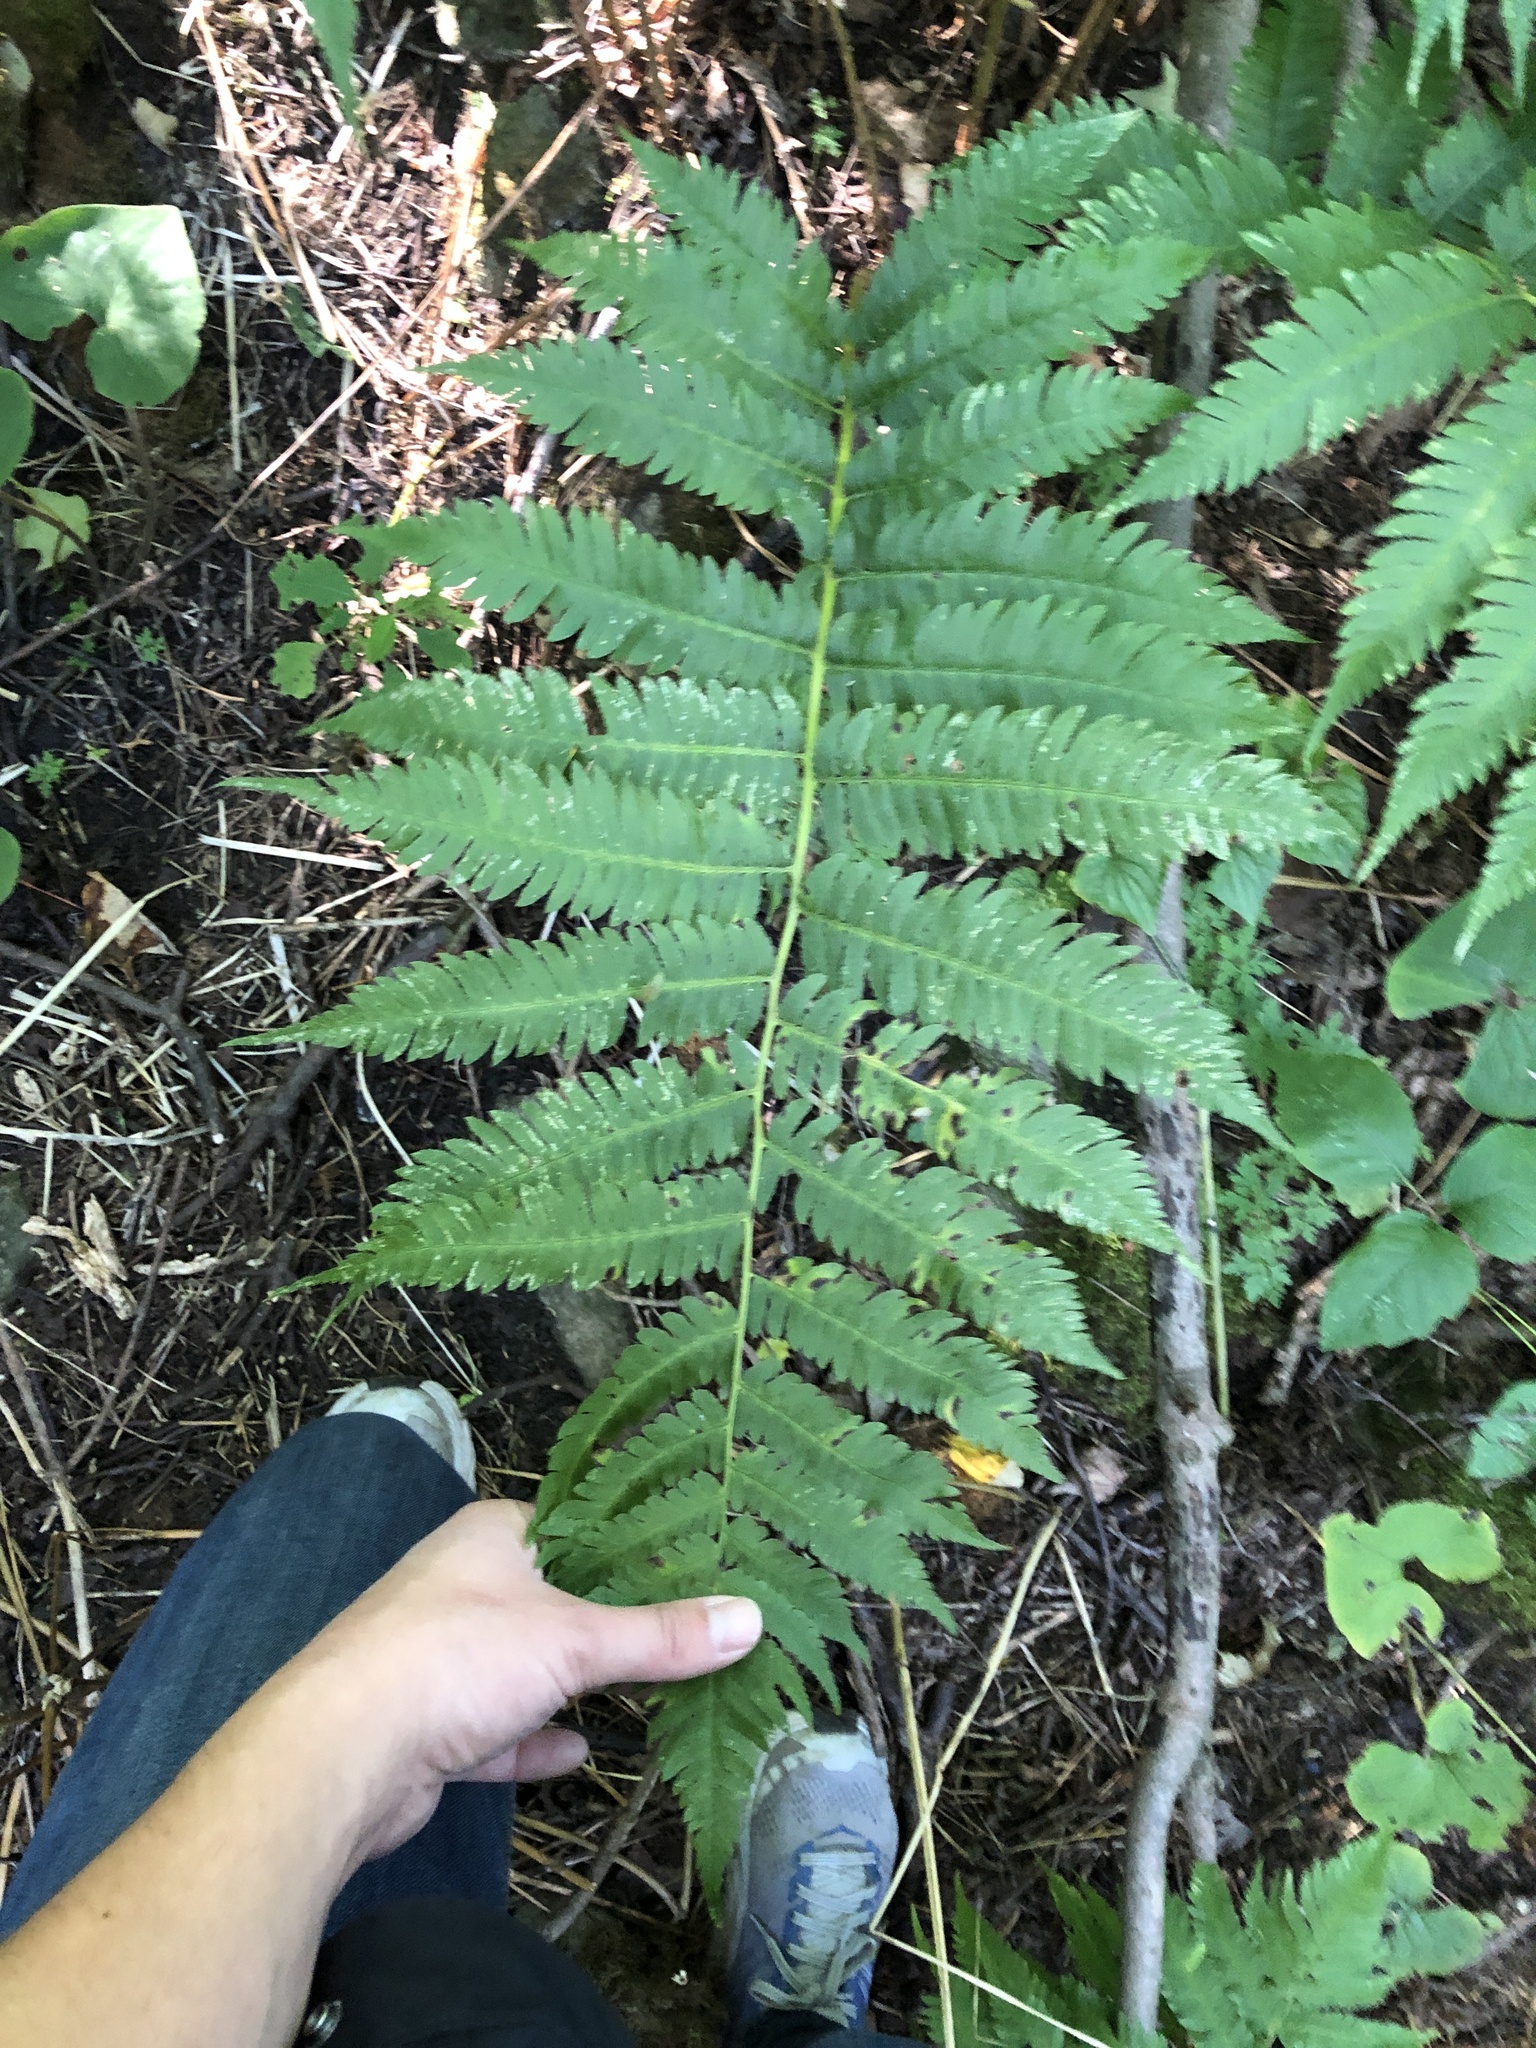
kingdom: Plantae
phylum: Tracheophyta
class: Polypodiopsida
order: Polypodiales
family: Dryopteridaceae
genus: Dryopteris
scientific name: Dryopteris goldieana
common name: Goldie's fern
